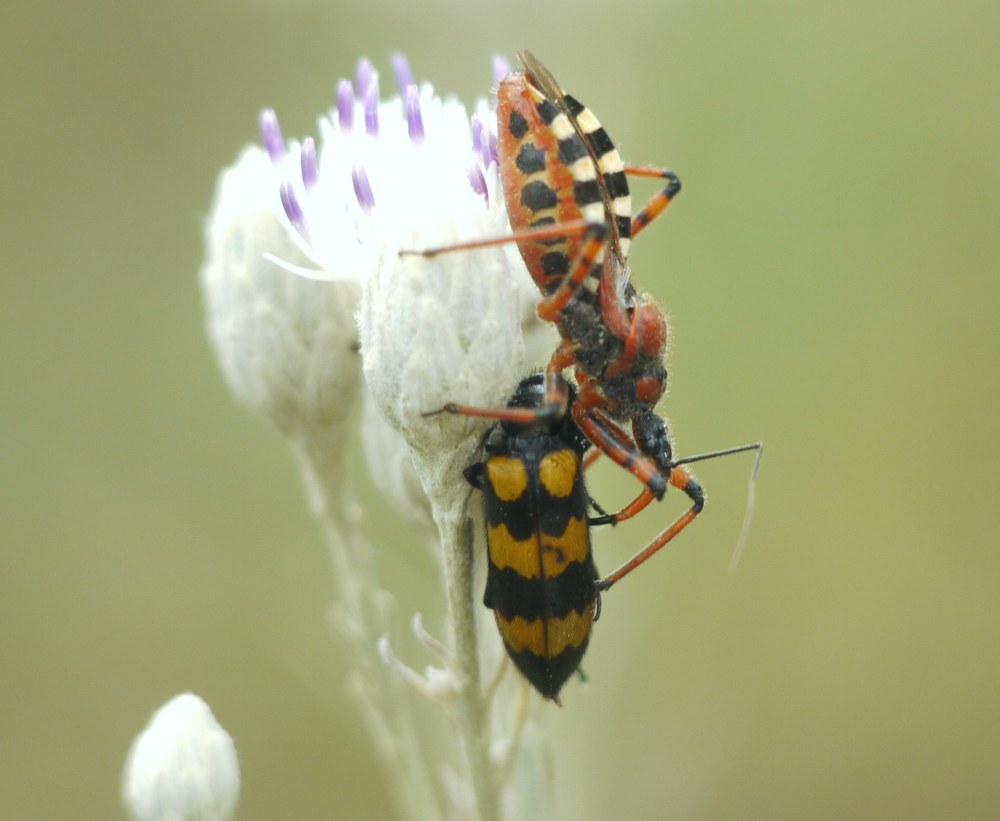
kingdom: Animalia
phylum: Arthropoda
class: Insecta
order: Hemiptera
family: Reduviidae
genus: Rhynocoris
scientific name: Rhynocoris iracundus
